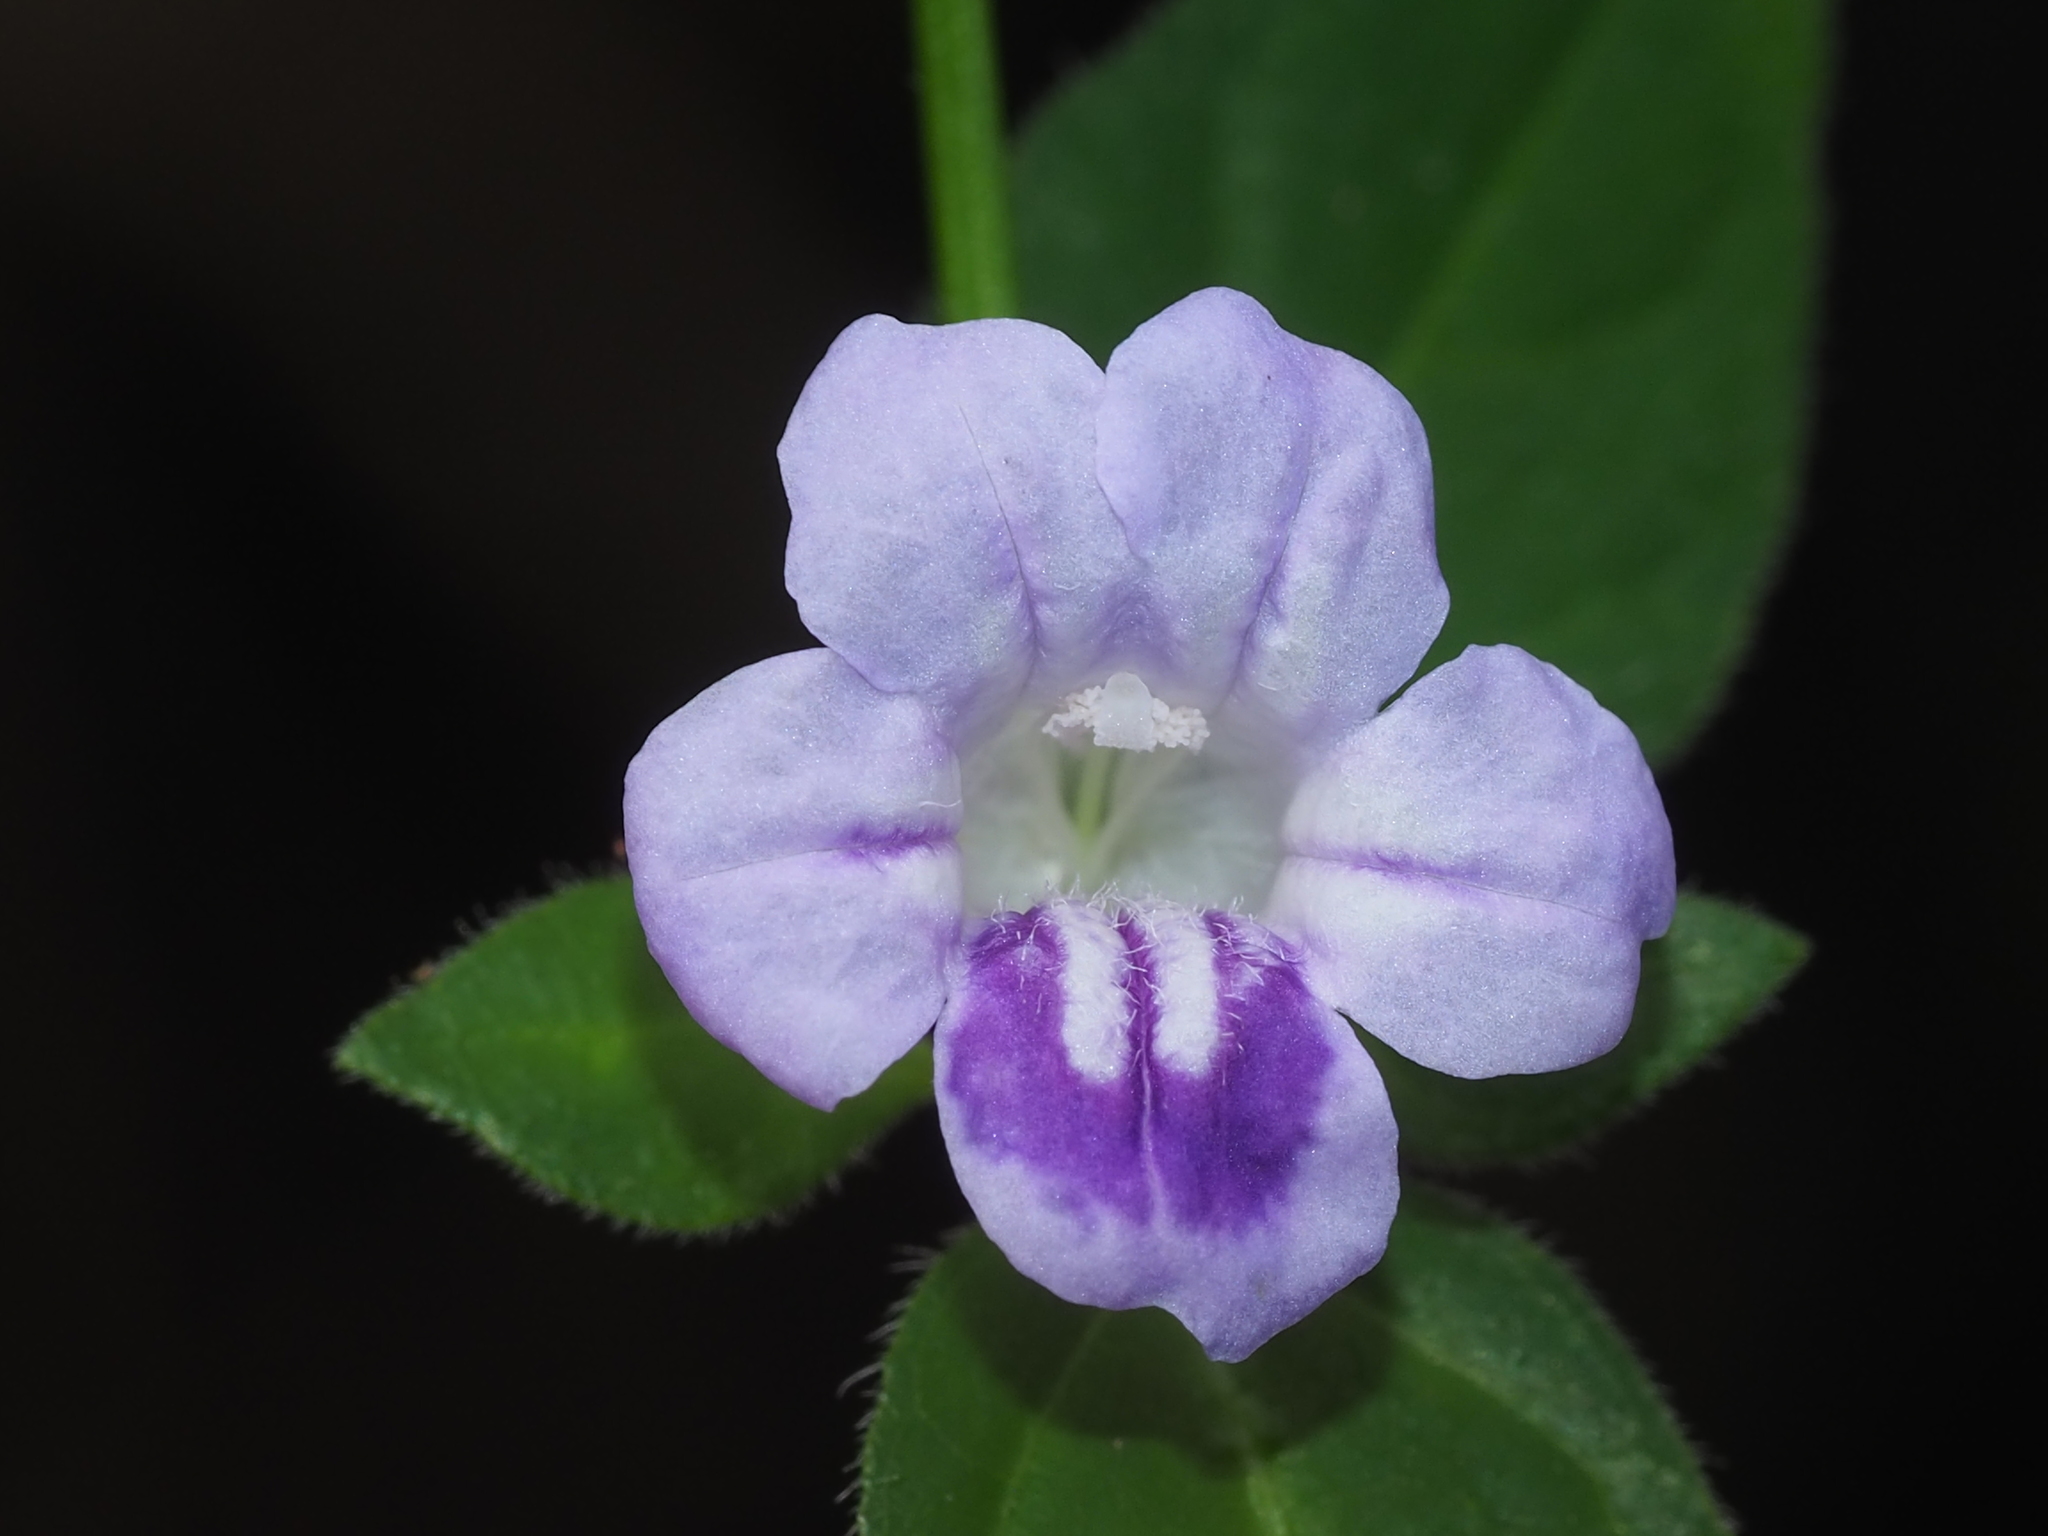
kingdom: Plantae
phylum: Tracheophyta
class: Magnoliopsida
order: Lamiales
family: Acanthaceae
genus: Ruellia
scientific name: Ruellia repens
